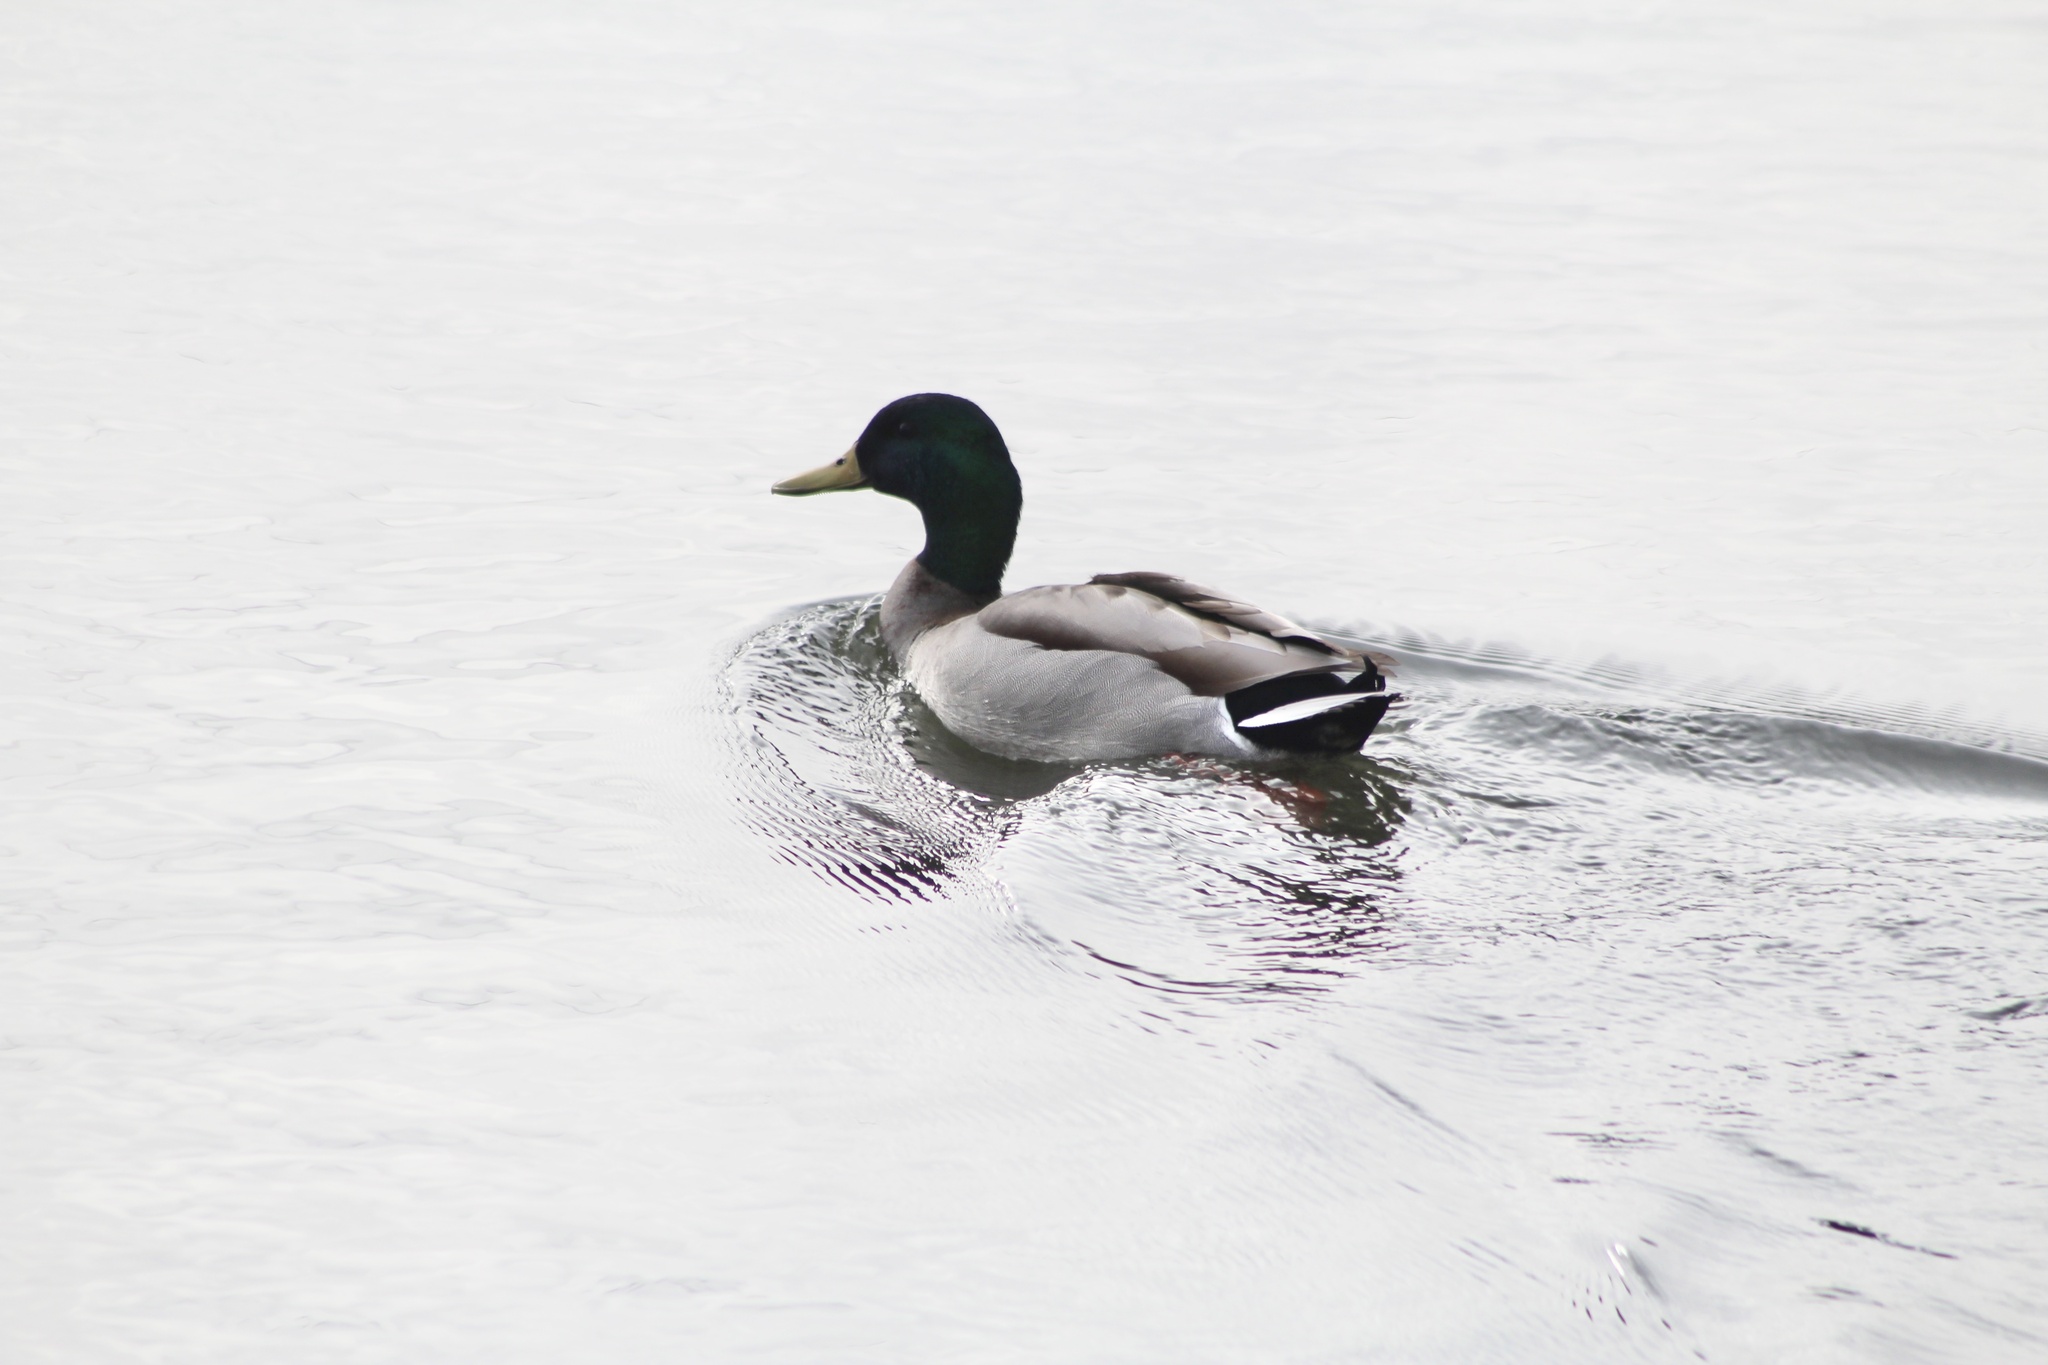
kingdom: Animalia
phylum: Chordata
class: Aves
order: Anseriformes
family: Anatidae
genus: Anas
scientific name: Anas platyrhynchos
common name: Mallard
